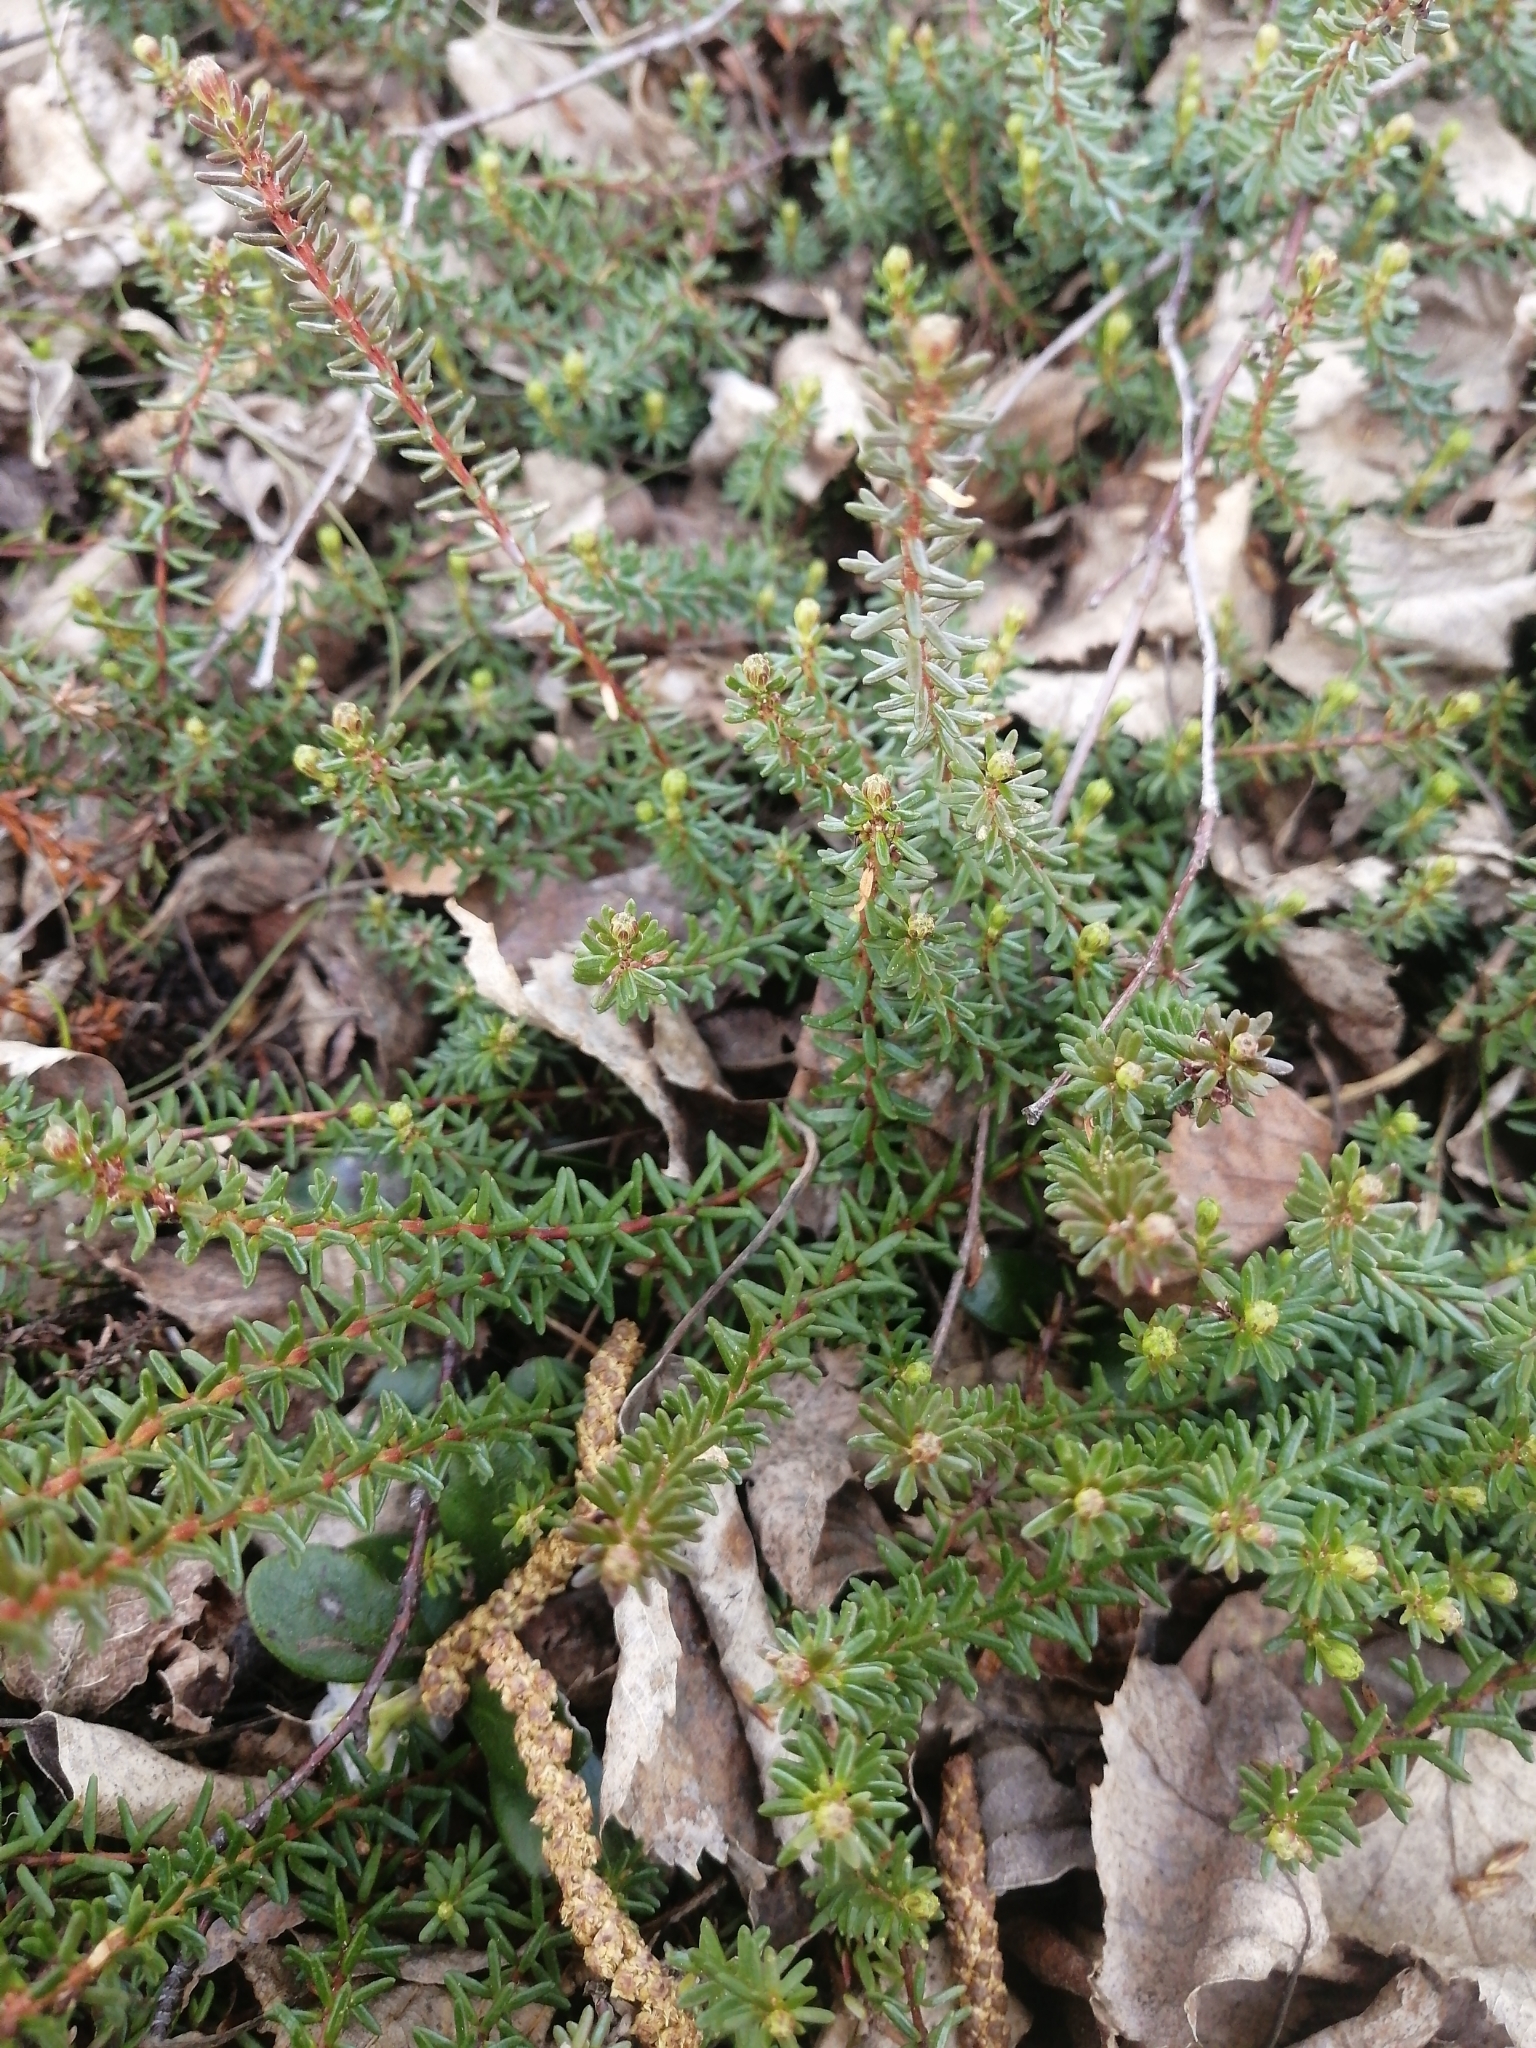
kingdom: Plantae
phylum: Tracheophyta
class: Magnoliopsida
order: Ericales
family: Ericaceae
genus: Empetrum
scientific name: Empetrum nigrum
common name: Black crowberry
